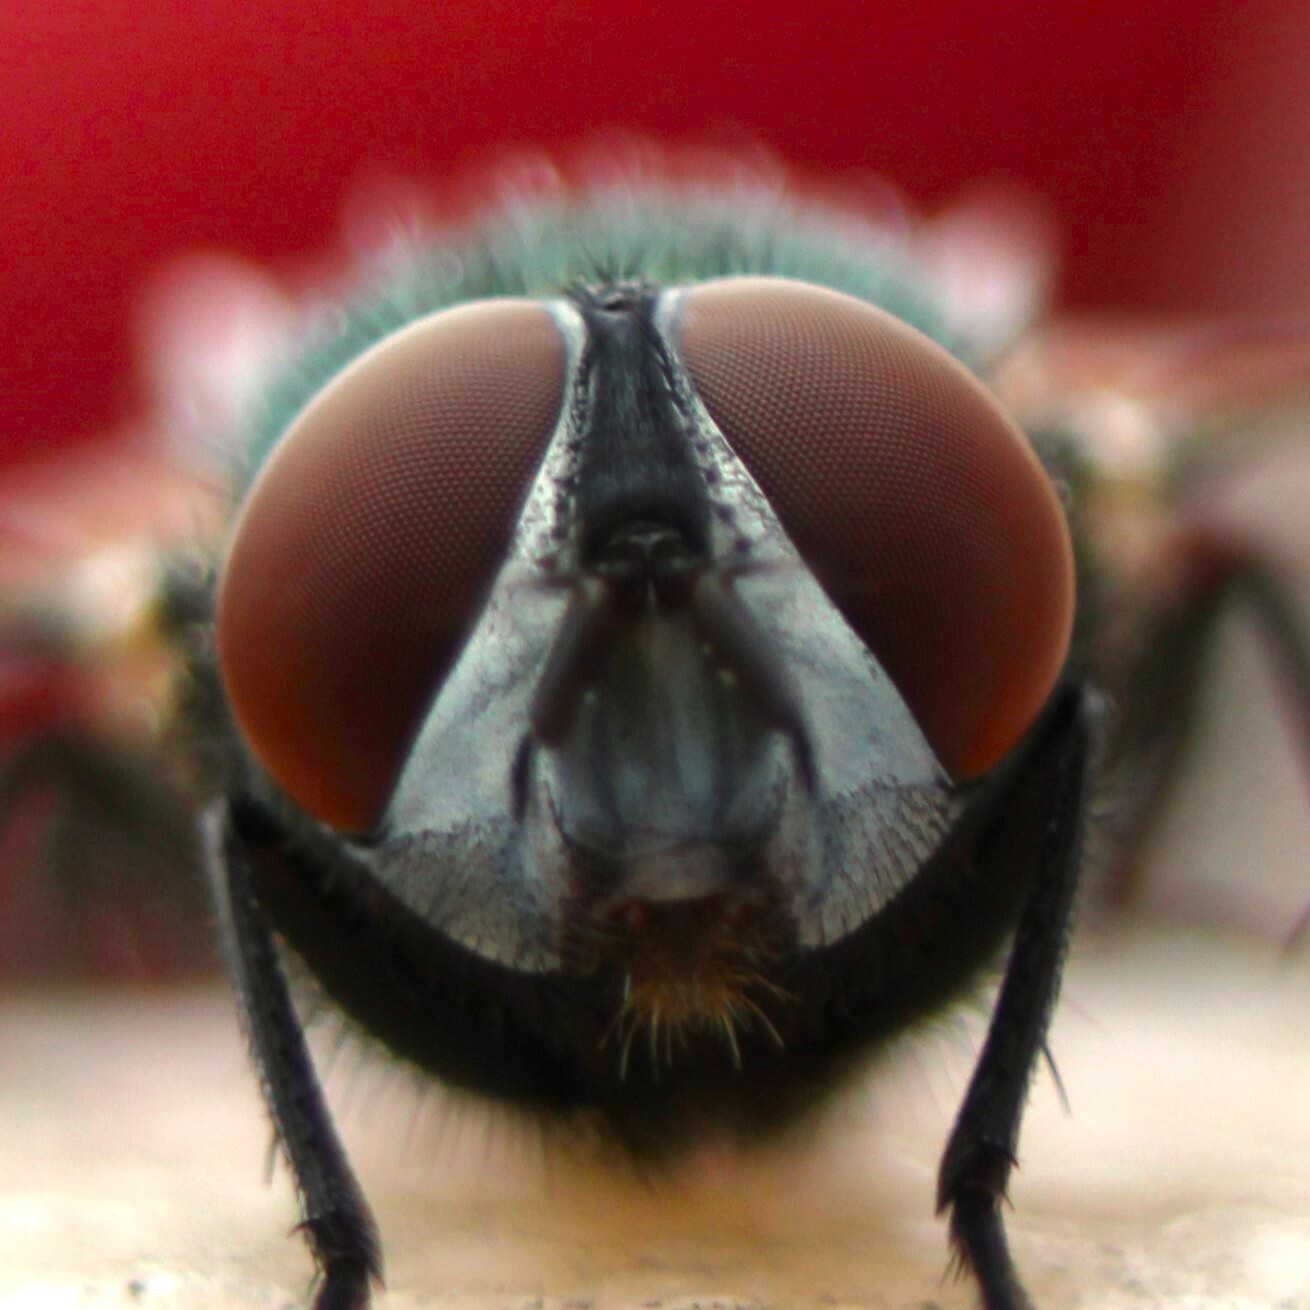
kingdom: Animalia
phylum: Arthropoda
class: Insecta
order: Diptera
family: Calliphoridae
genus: Lucilia
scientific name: Lucilia
